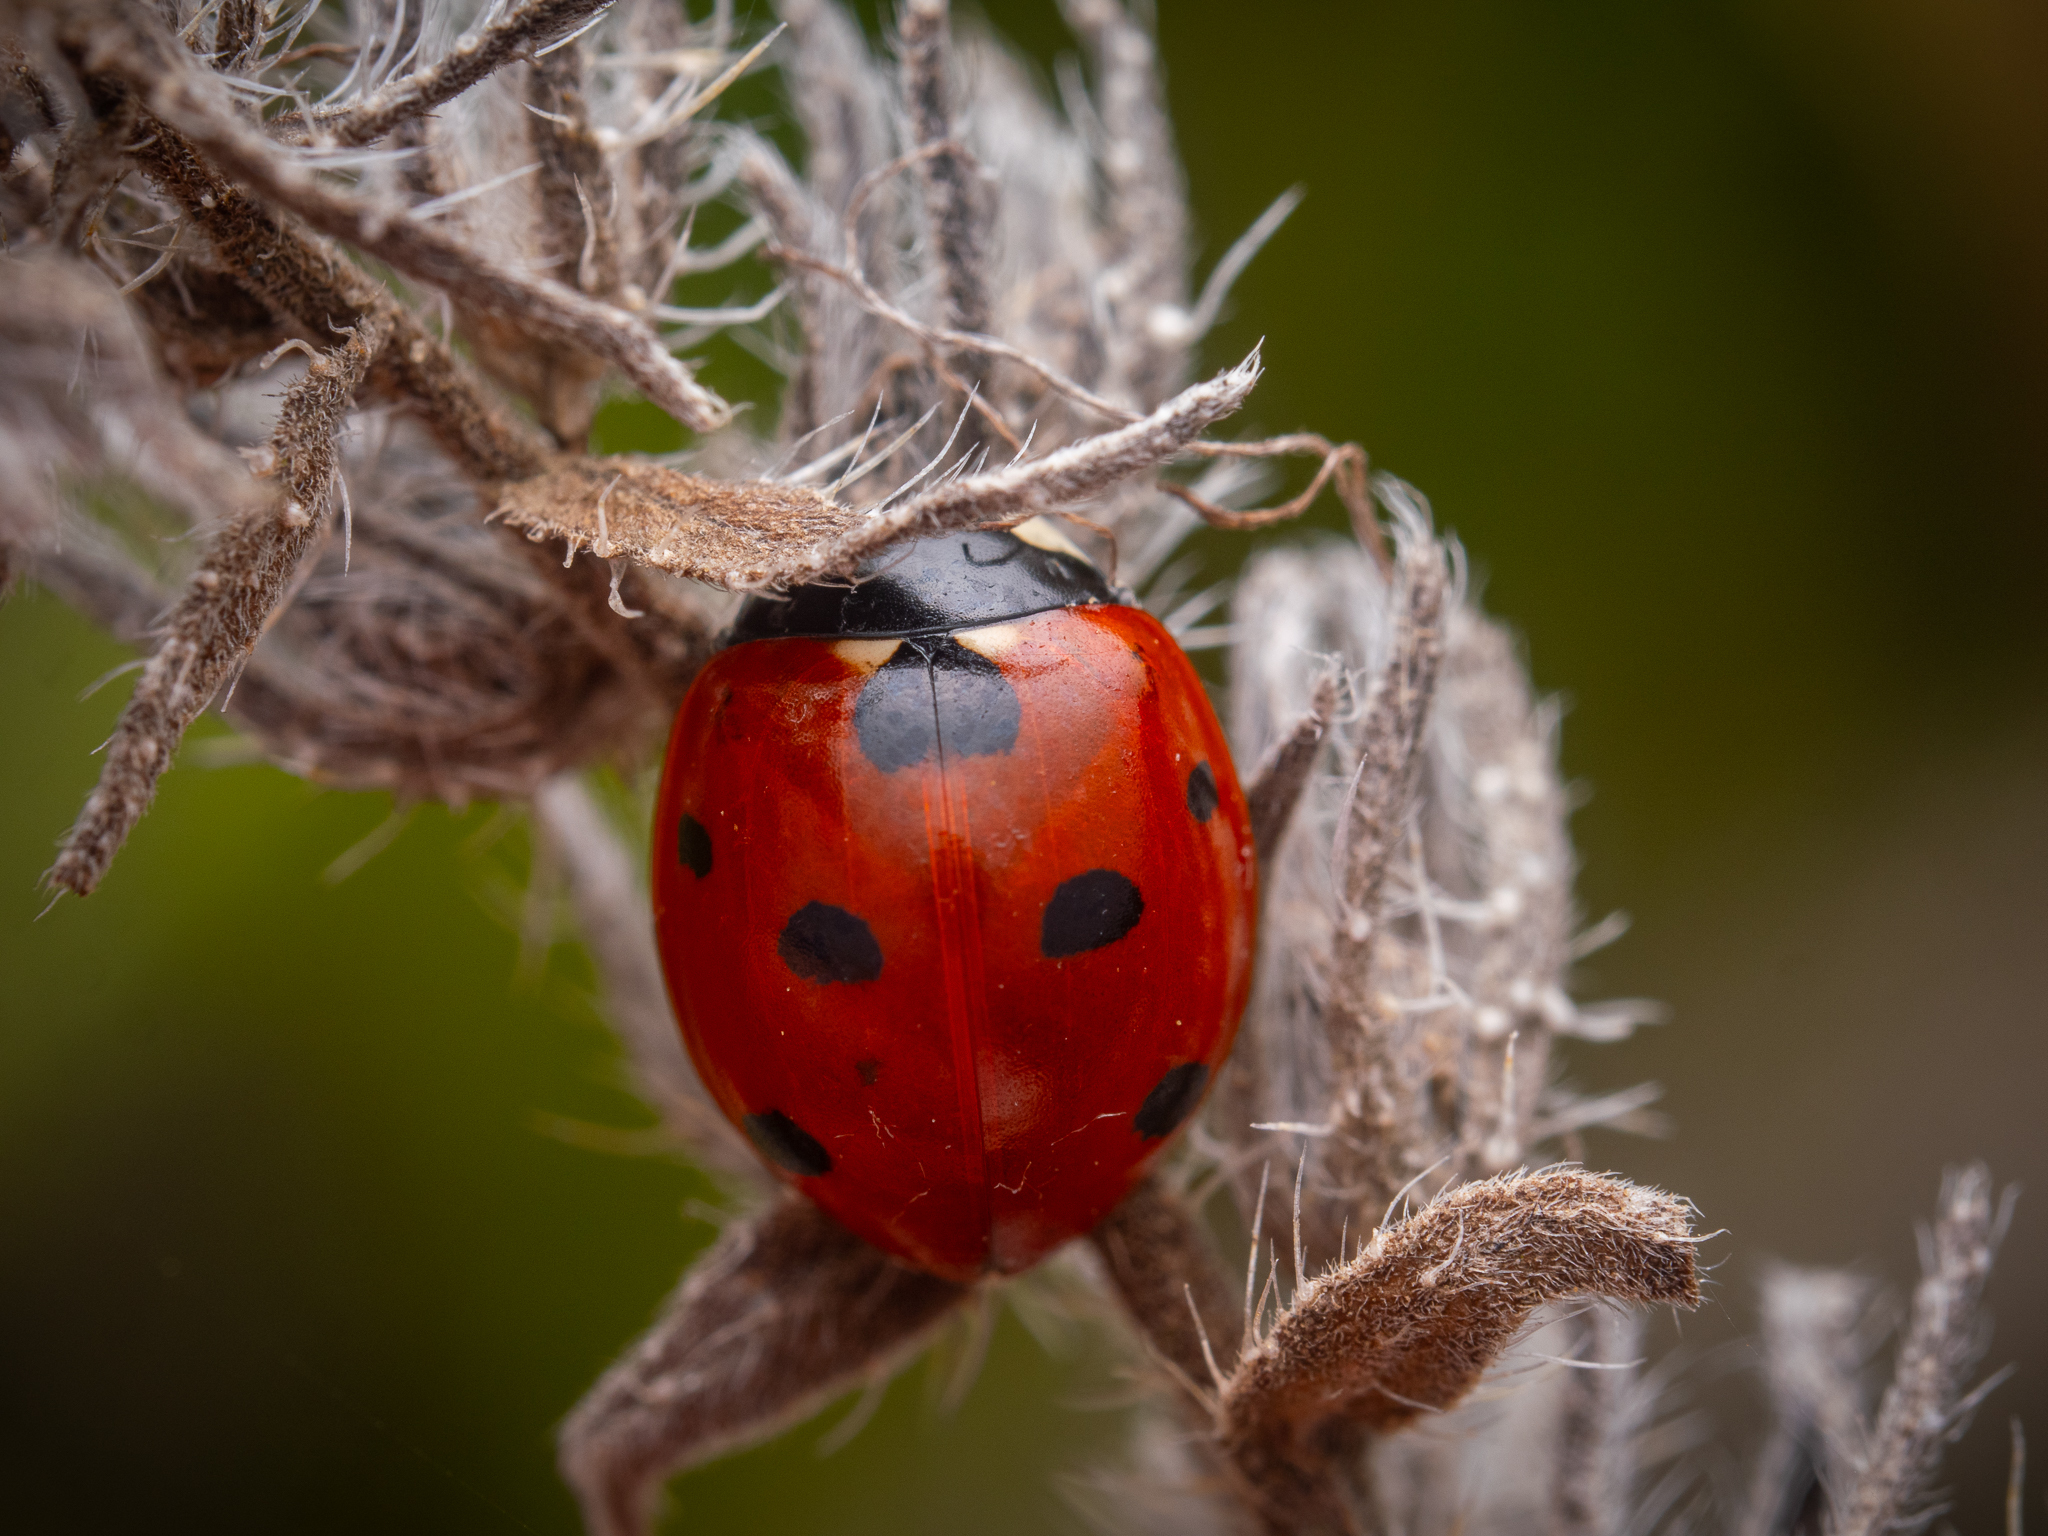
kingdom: Animalia
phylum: Arthropoda
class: Insecta
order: Coleoptera
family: Coccinellidae
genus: Coccinella
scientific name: Coccinella septempunctata
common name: Sevenspotted lady beetle
